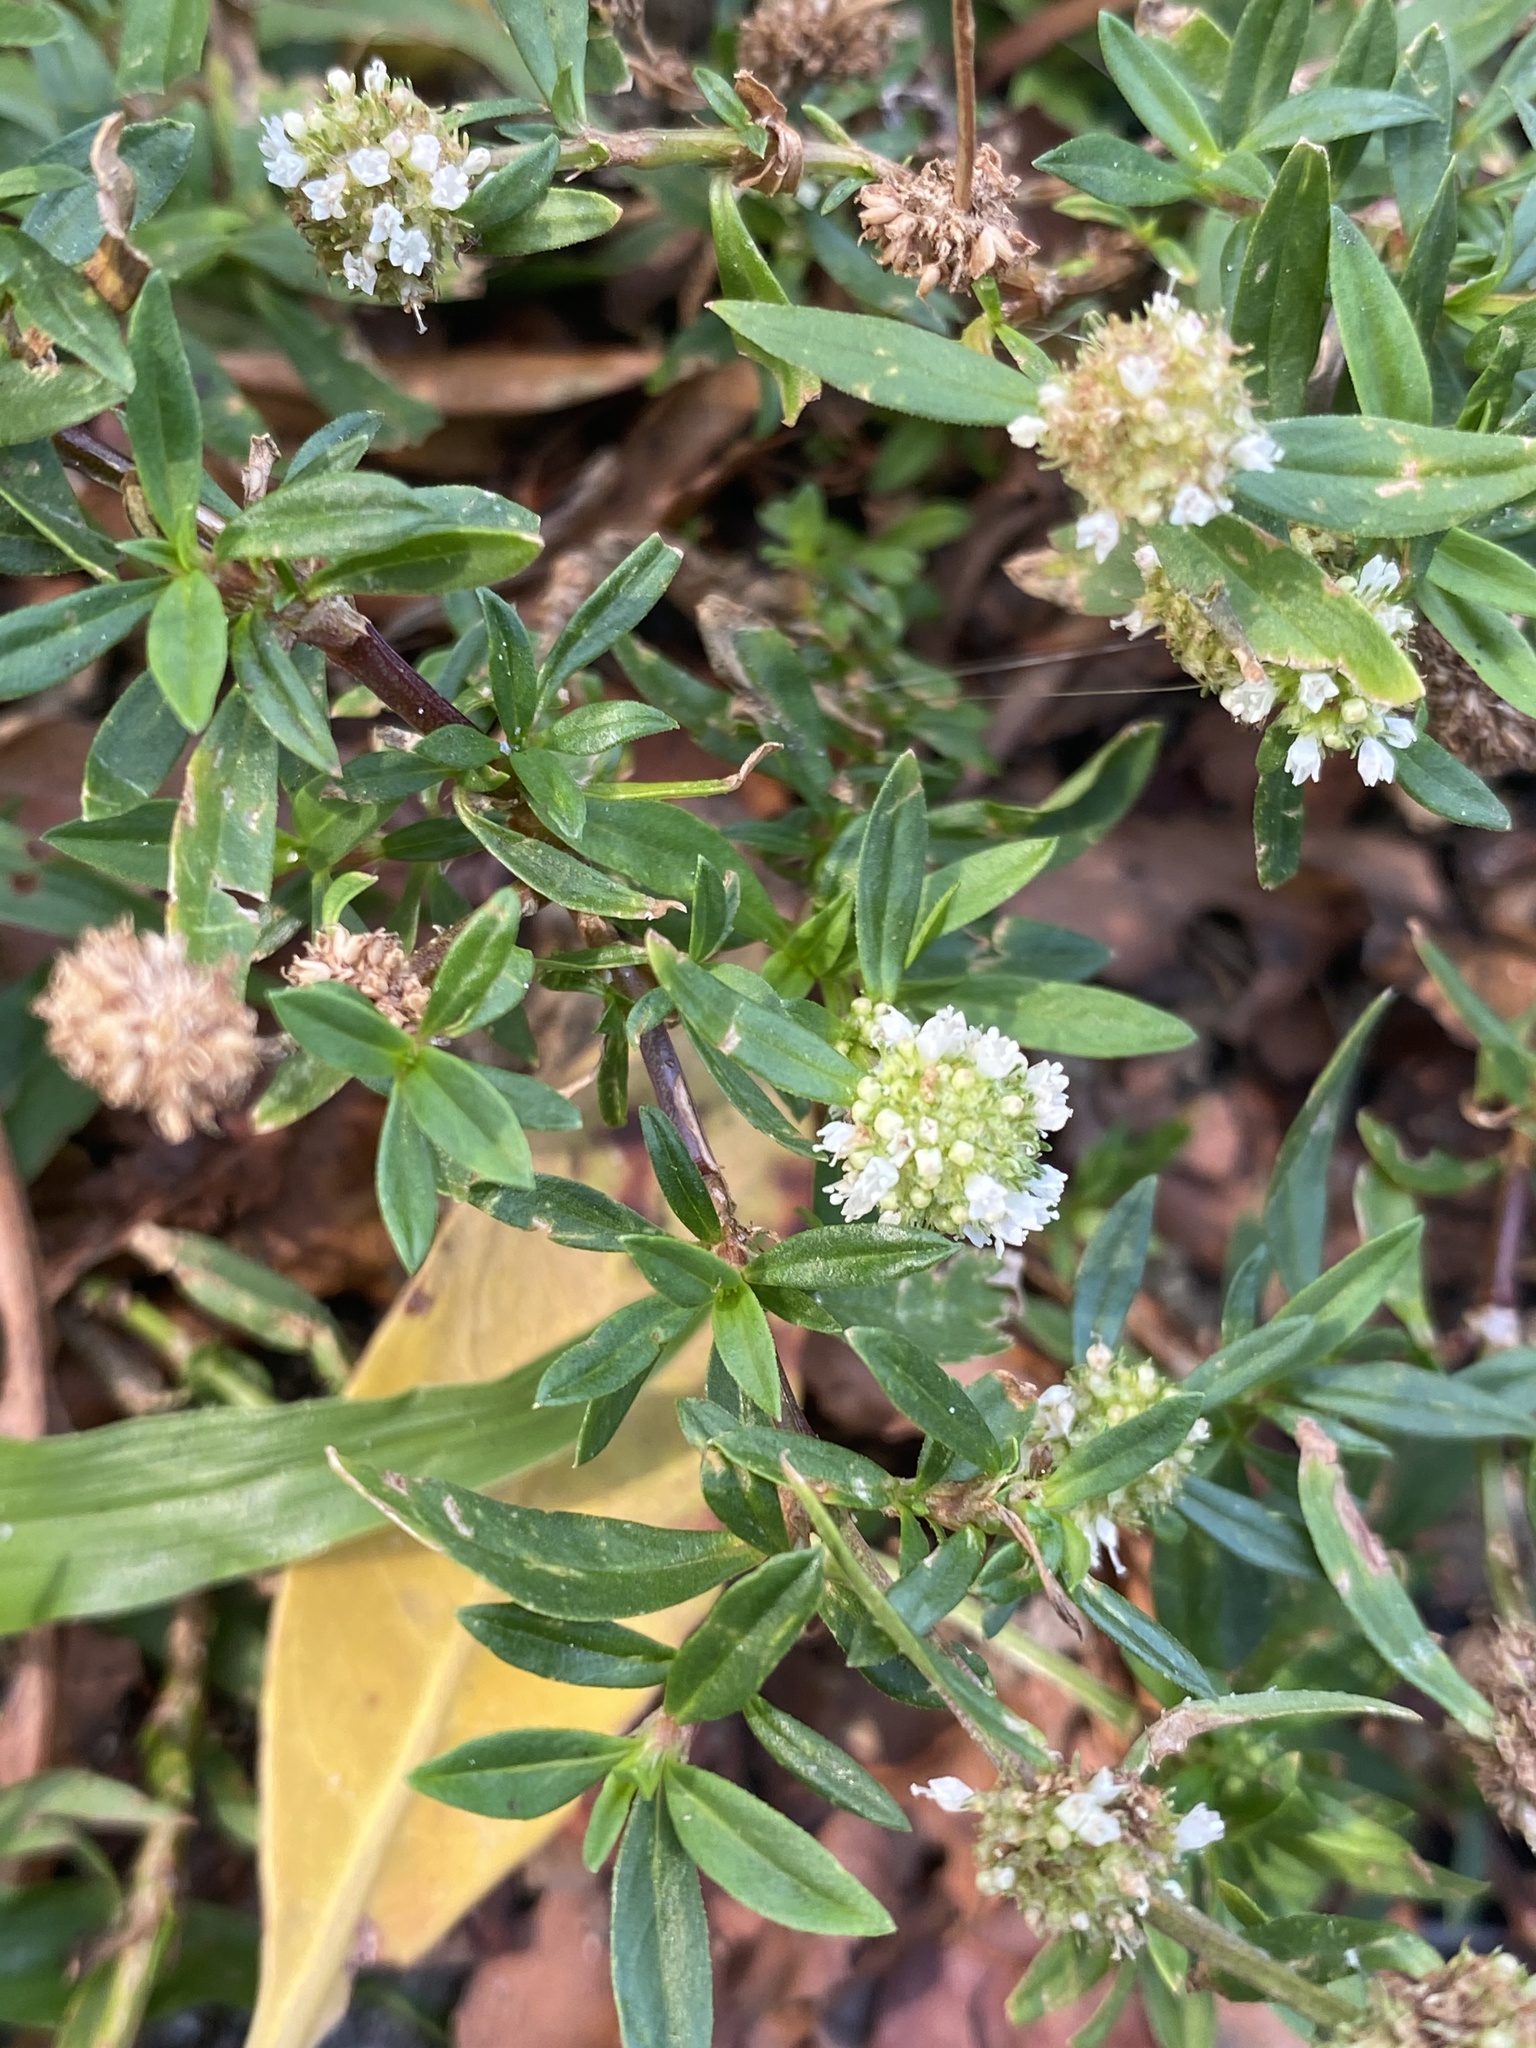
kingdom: Plantae
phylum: Tracheophyta
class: Magnoliopsida
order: Gentianales
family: Rubiaceae
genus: Spermacoce
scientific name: Spermacoce verticillata
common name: Shrubby false buttonweed
